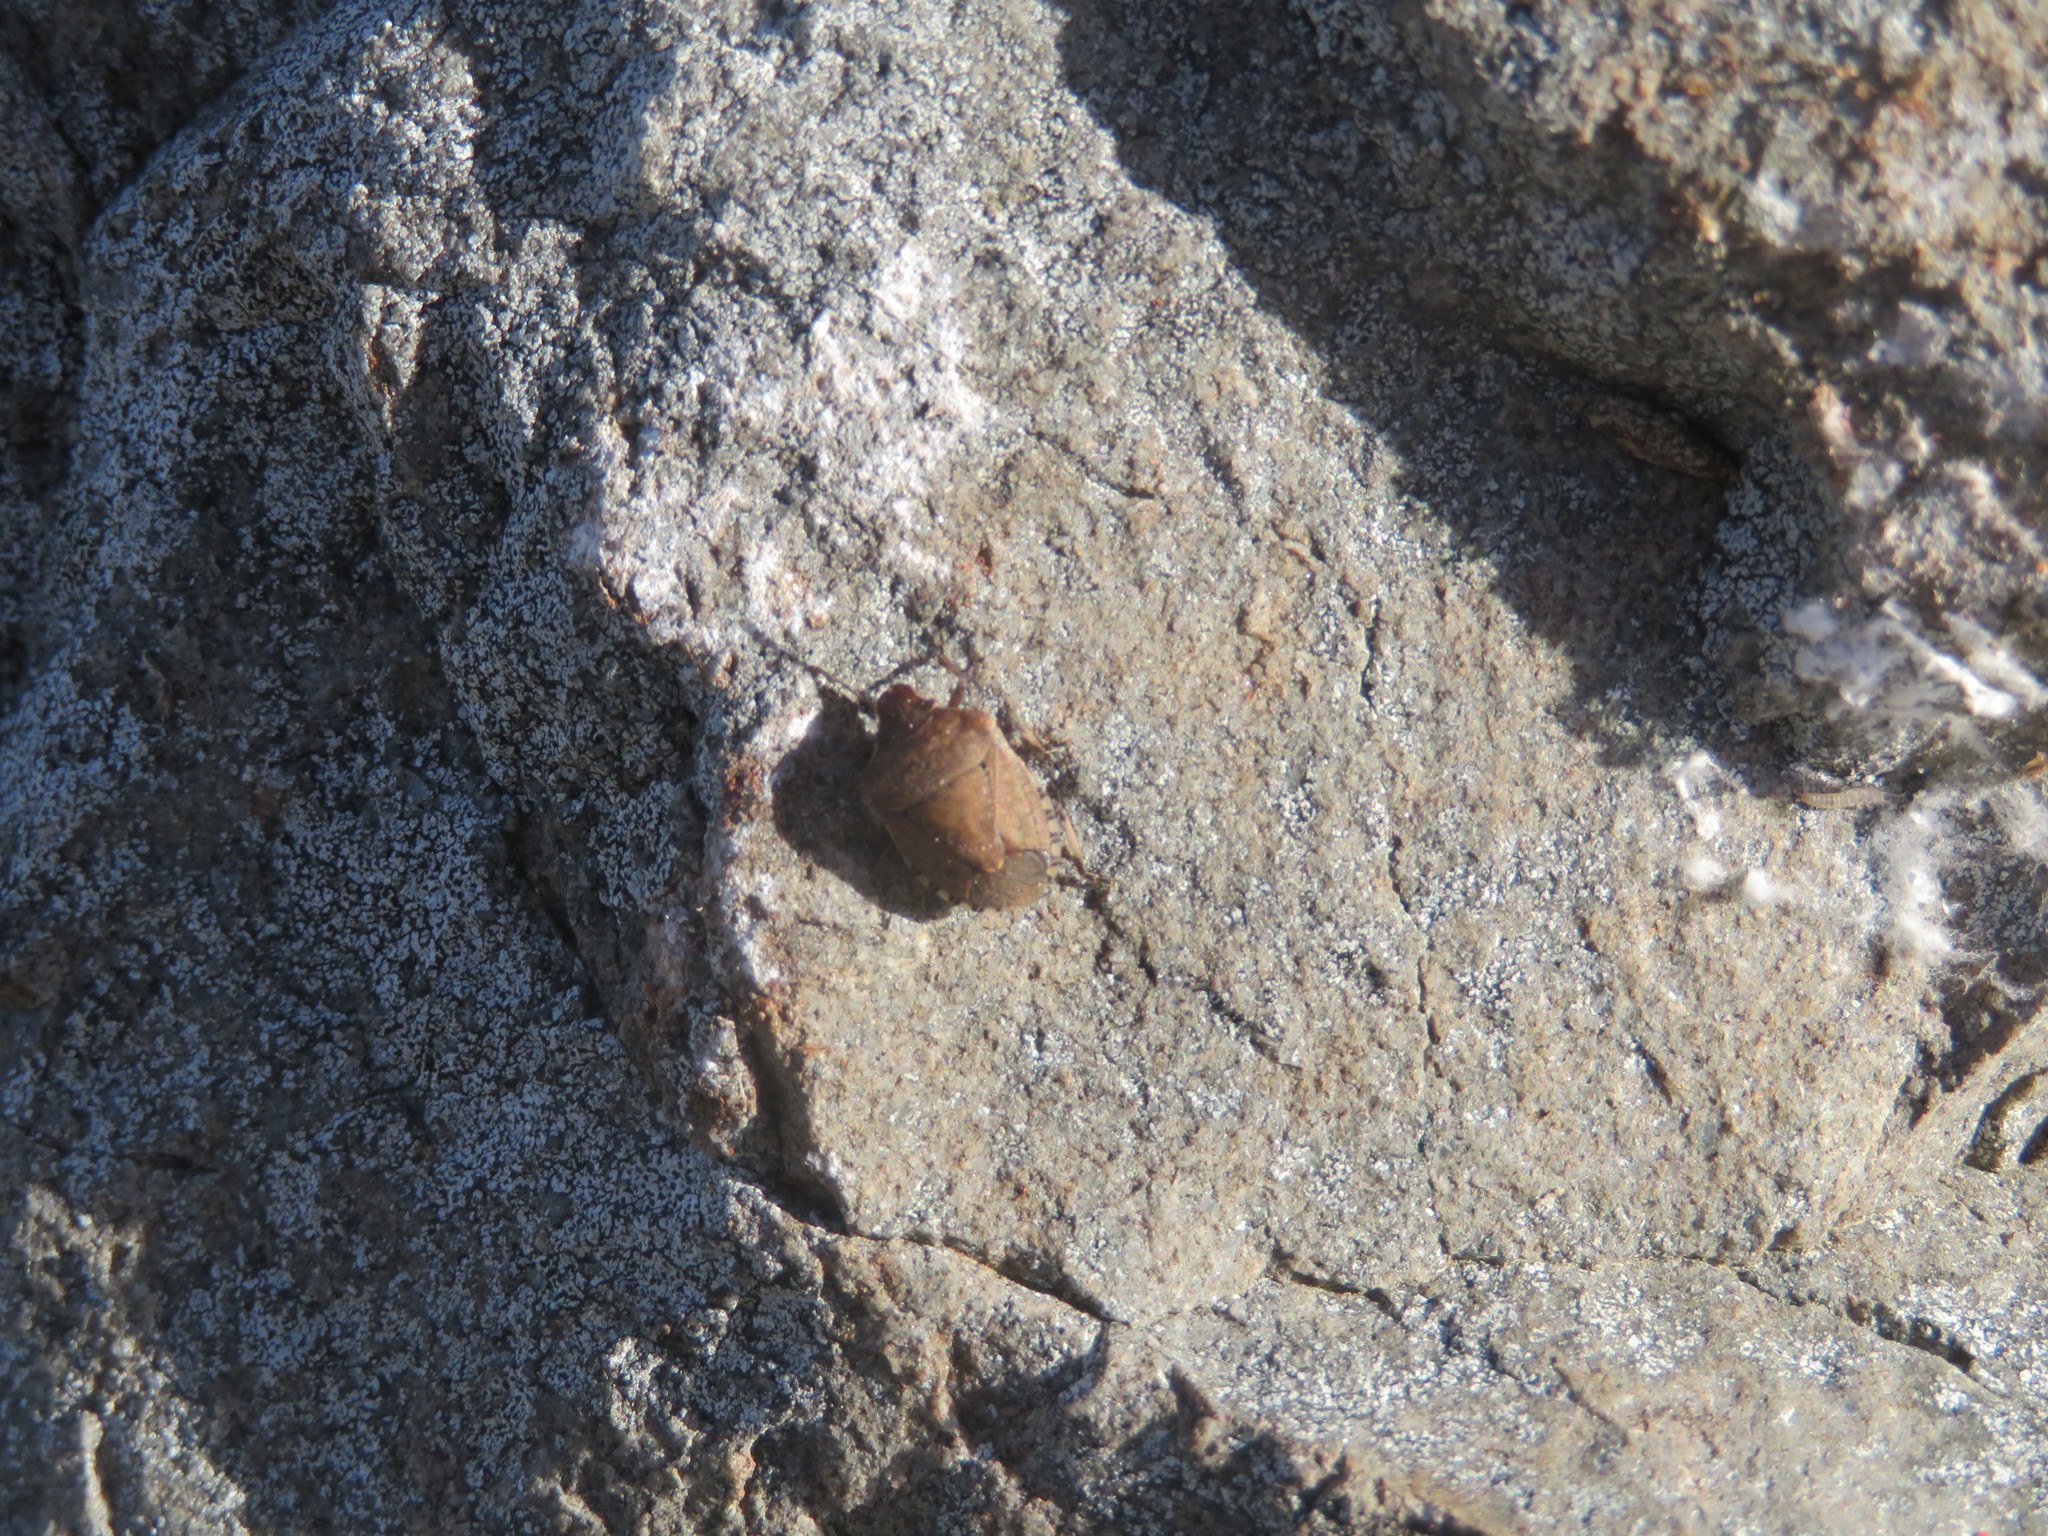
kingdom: Animalia
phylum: Arthropoda
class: Insecta
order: Hemiptera
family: Pentatomidae
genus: Dictyotus
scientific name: Dictyotus caenosus
